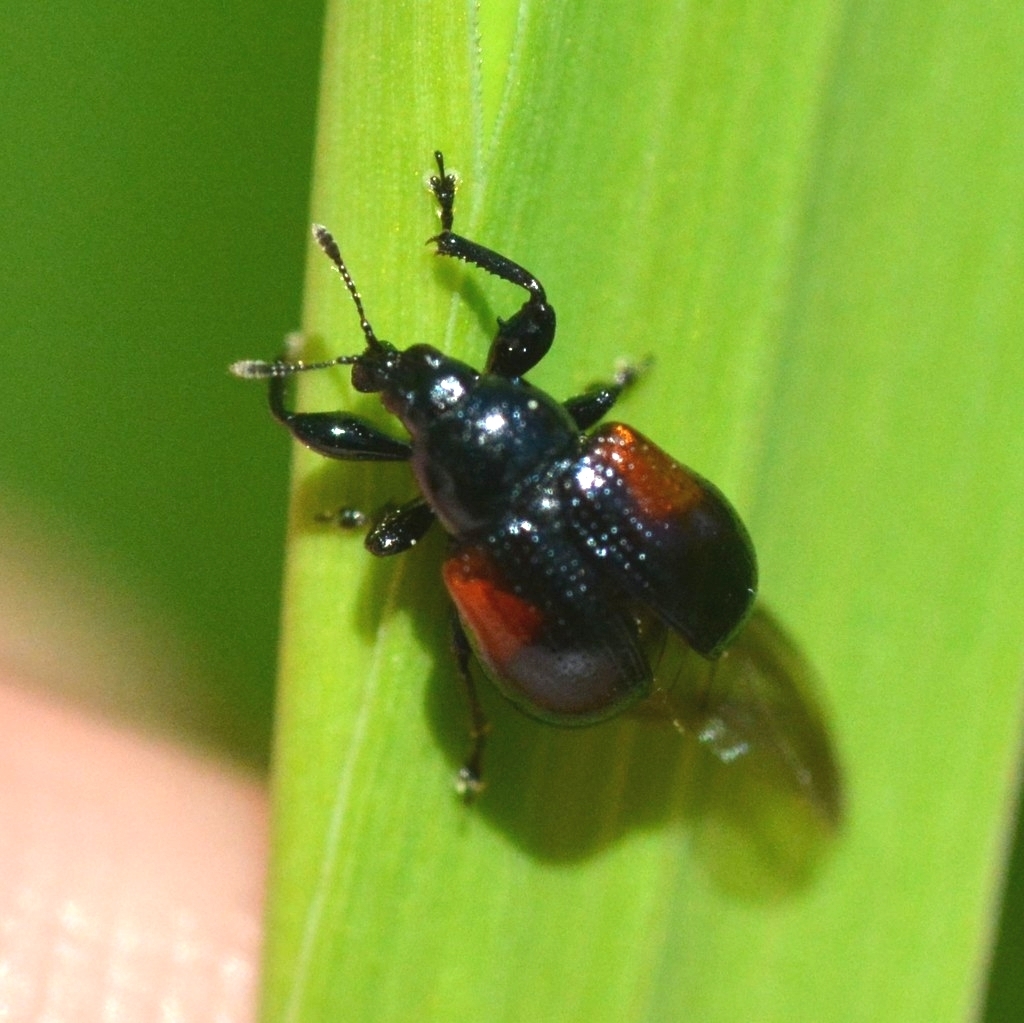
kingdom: Animalia
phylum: Arthropoda
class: Insecta
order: Coleoptera
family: Attelabidae
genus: Attelabus
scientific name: Attelabus bipustulatus
